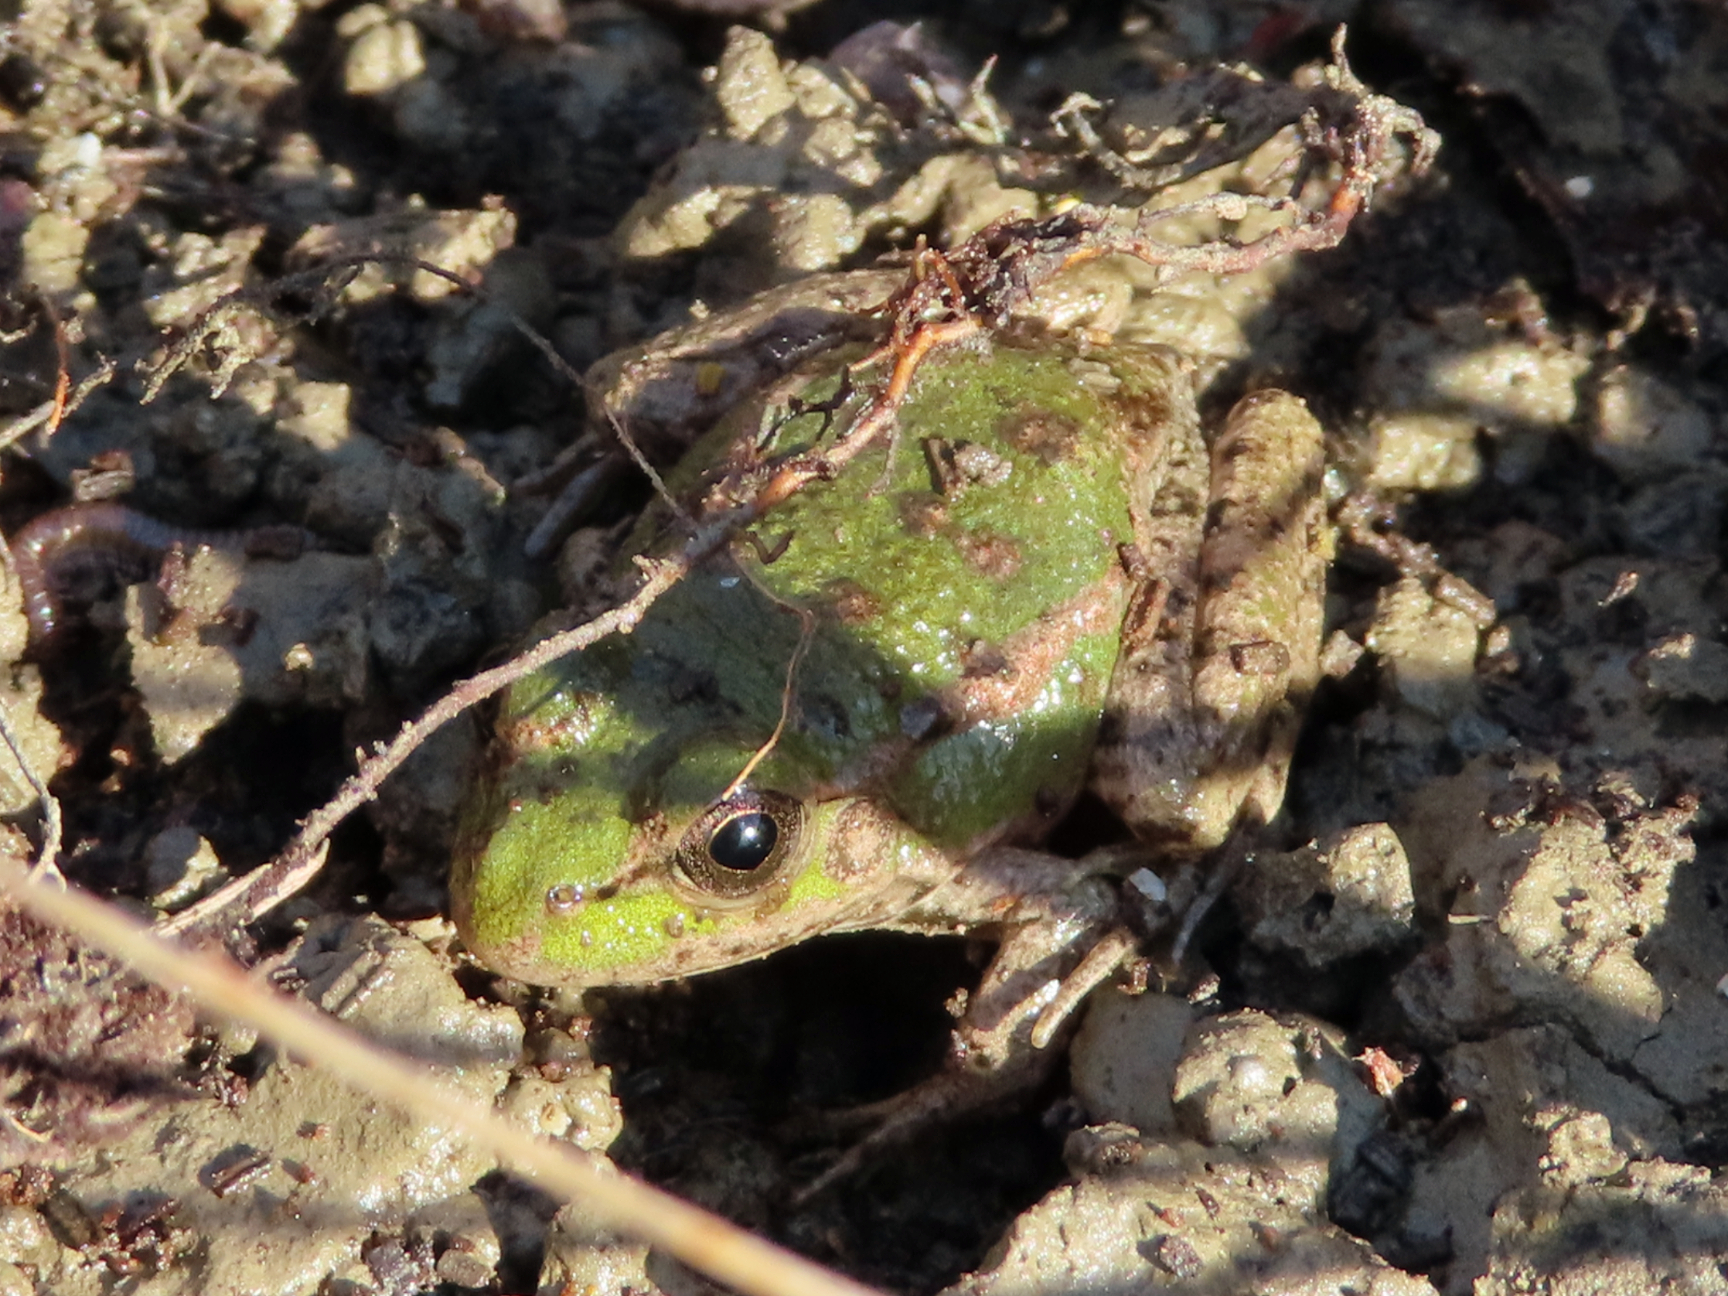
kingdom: Animalia
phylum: Chordata
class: Amphibia
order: Anura
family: Ranidae
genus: Pelophylax
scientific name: Pelophylax ridibundus
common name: Marsh frog
